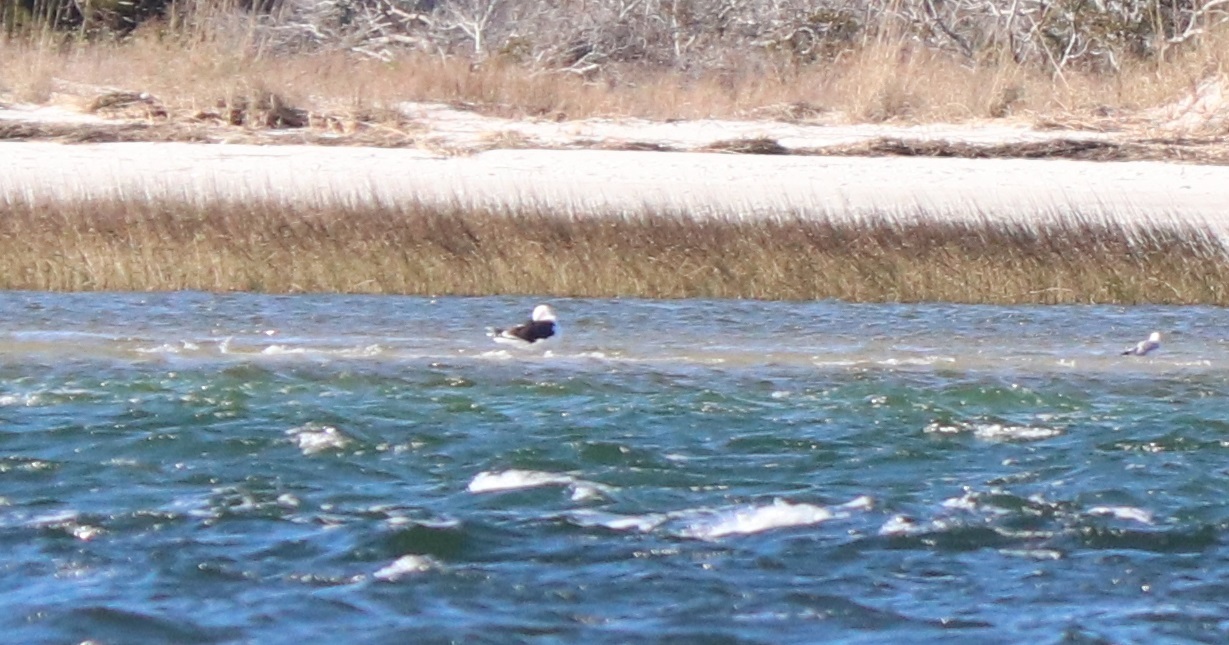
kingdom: Animalia
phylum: Chordata
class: Aves
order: Charadriiformes
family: Laridae
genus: Larus
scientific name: Larus marinus
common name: Great black-backed gull
